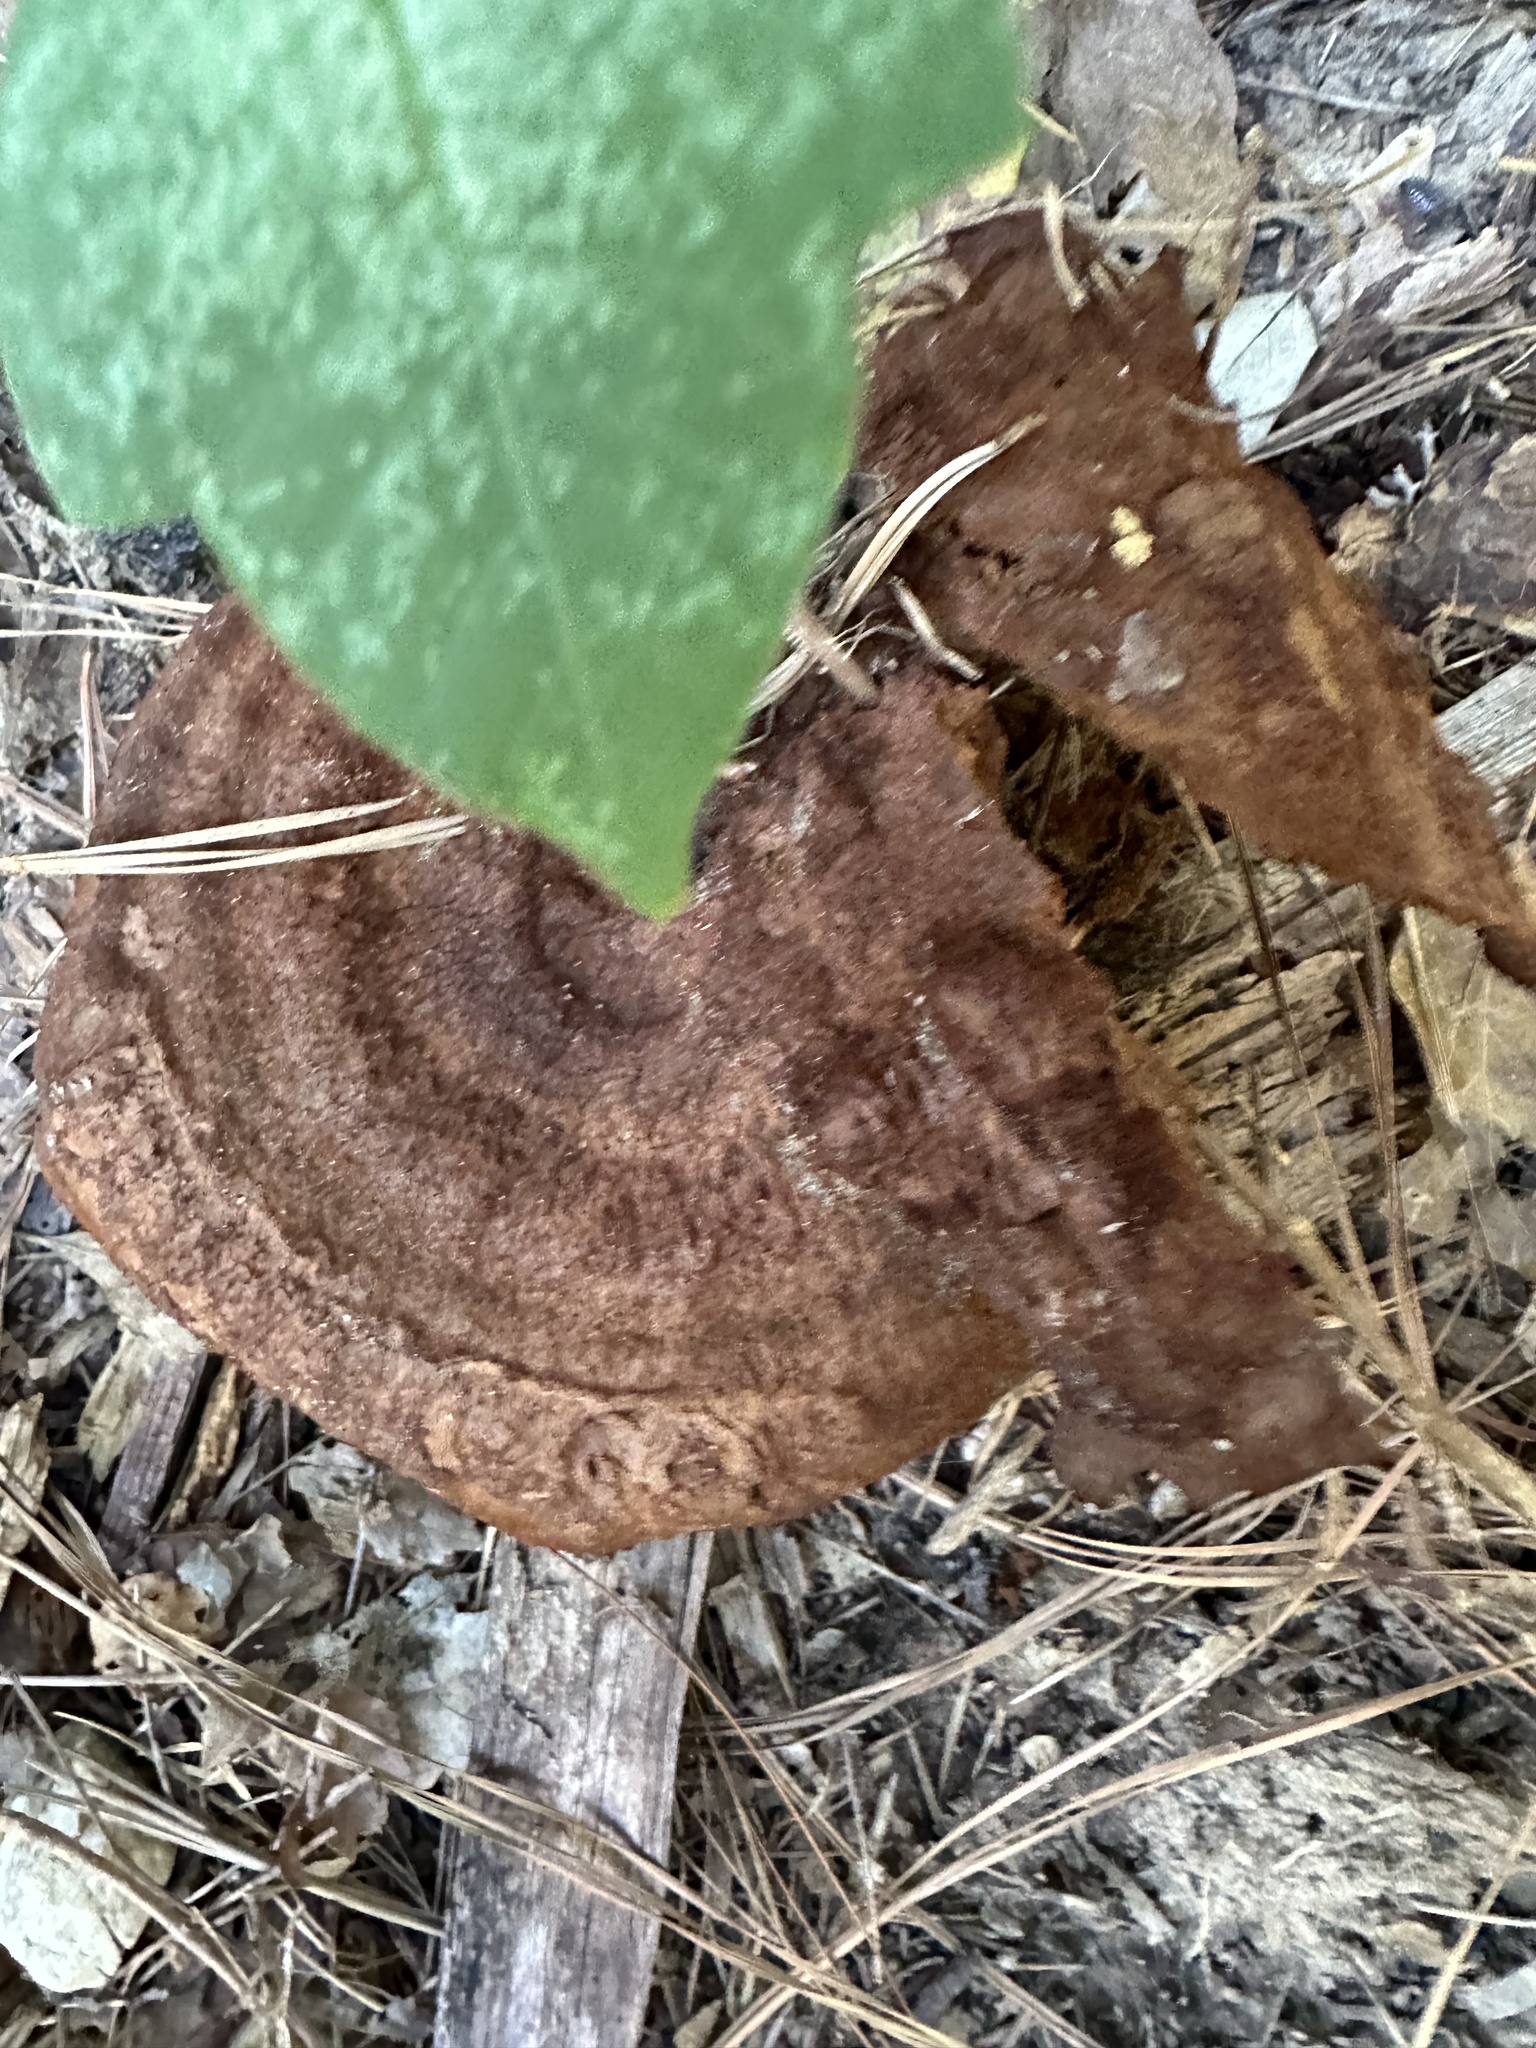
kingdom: Fungi
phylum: Basidiomycota
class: Agaricomycetes
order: Polyporales
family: Laetiporaceae
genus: Phaeolus
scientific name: Phaeolus schweinitzii
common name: Dyer's mazegill
